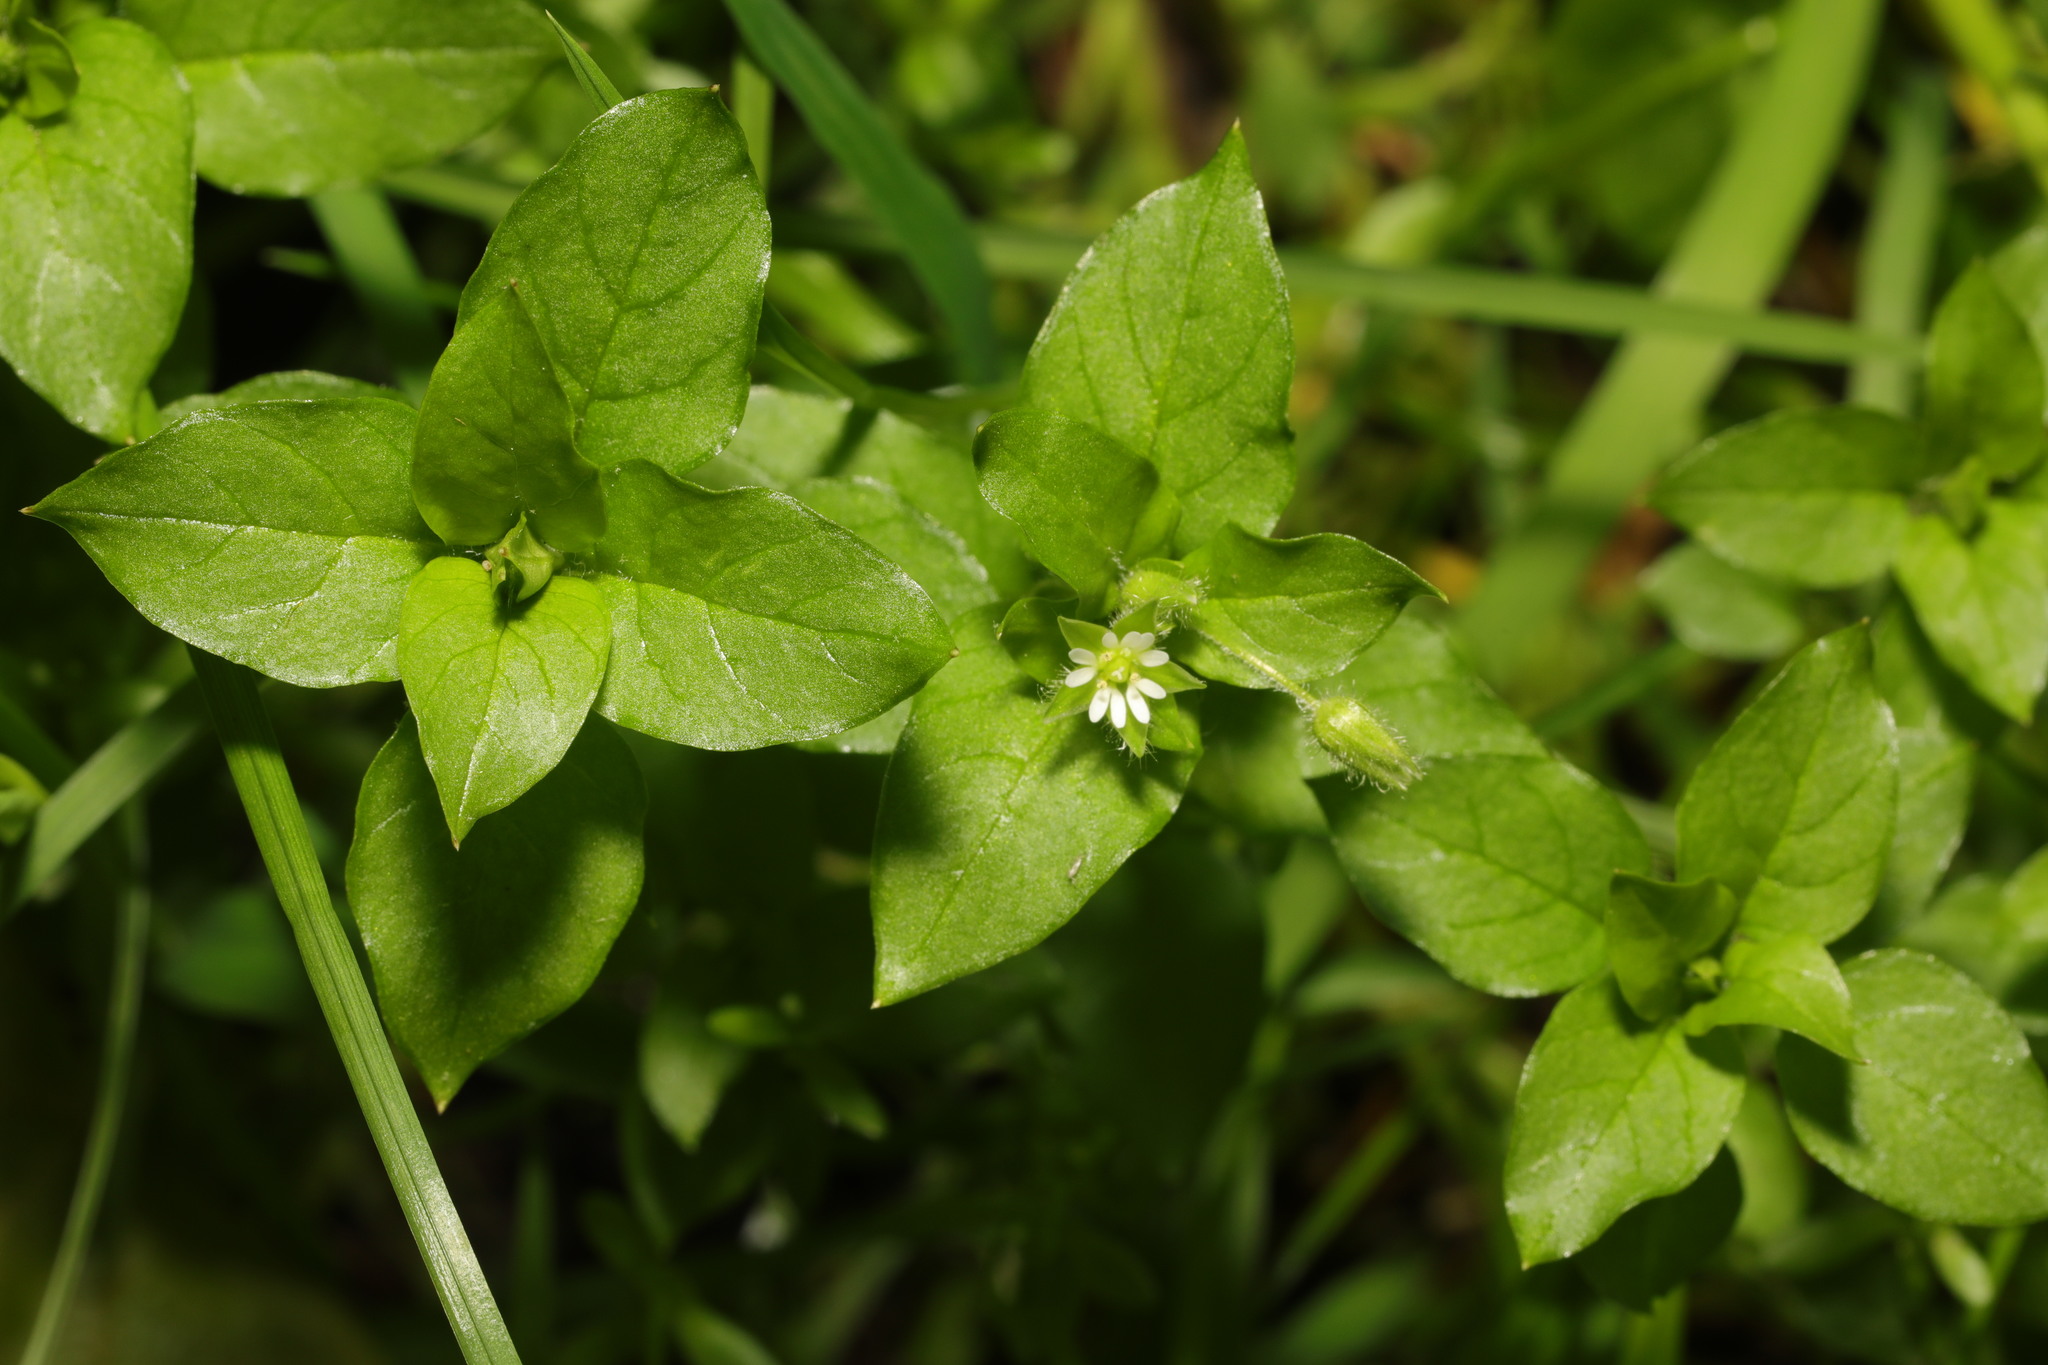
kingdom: Plantae
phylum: Tracheophyta
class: Magnoliopsida
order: Caryophyllales
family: Caryophyllaceae
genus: Stellaria
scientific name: Stellaria media
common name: Common chickweed
